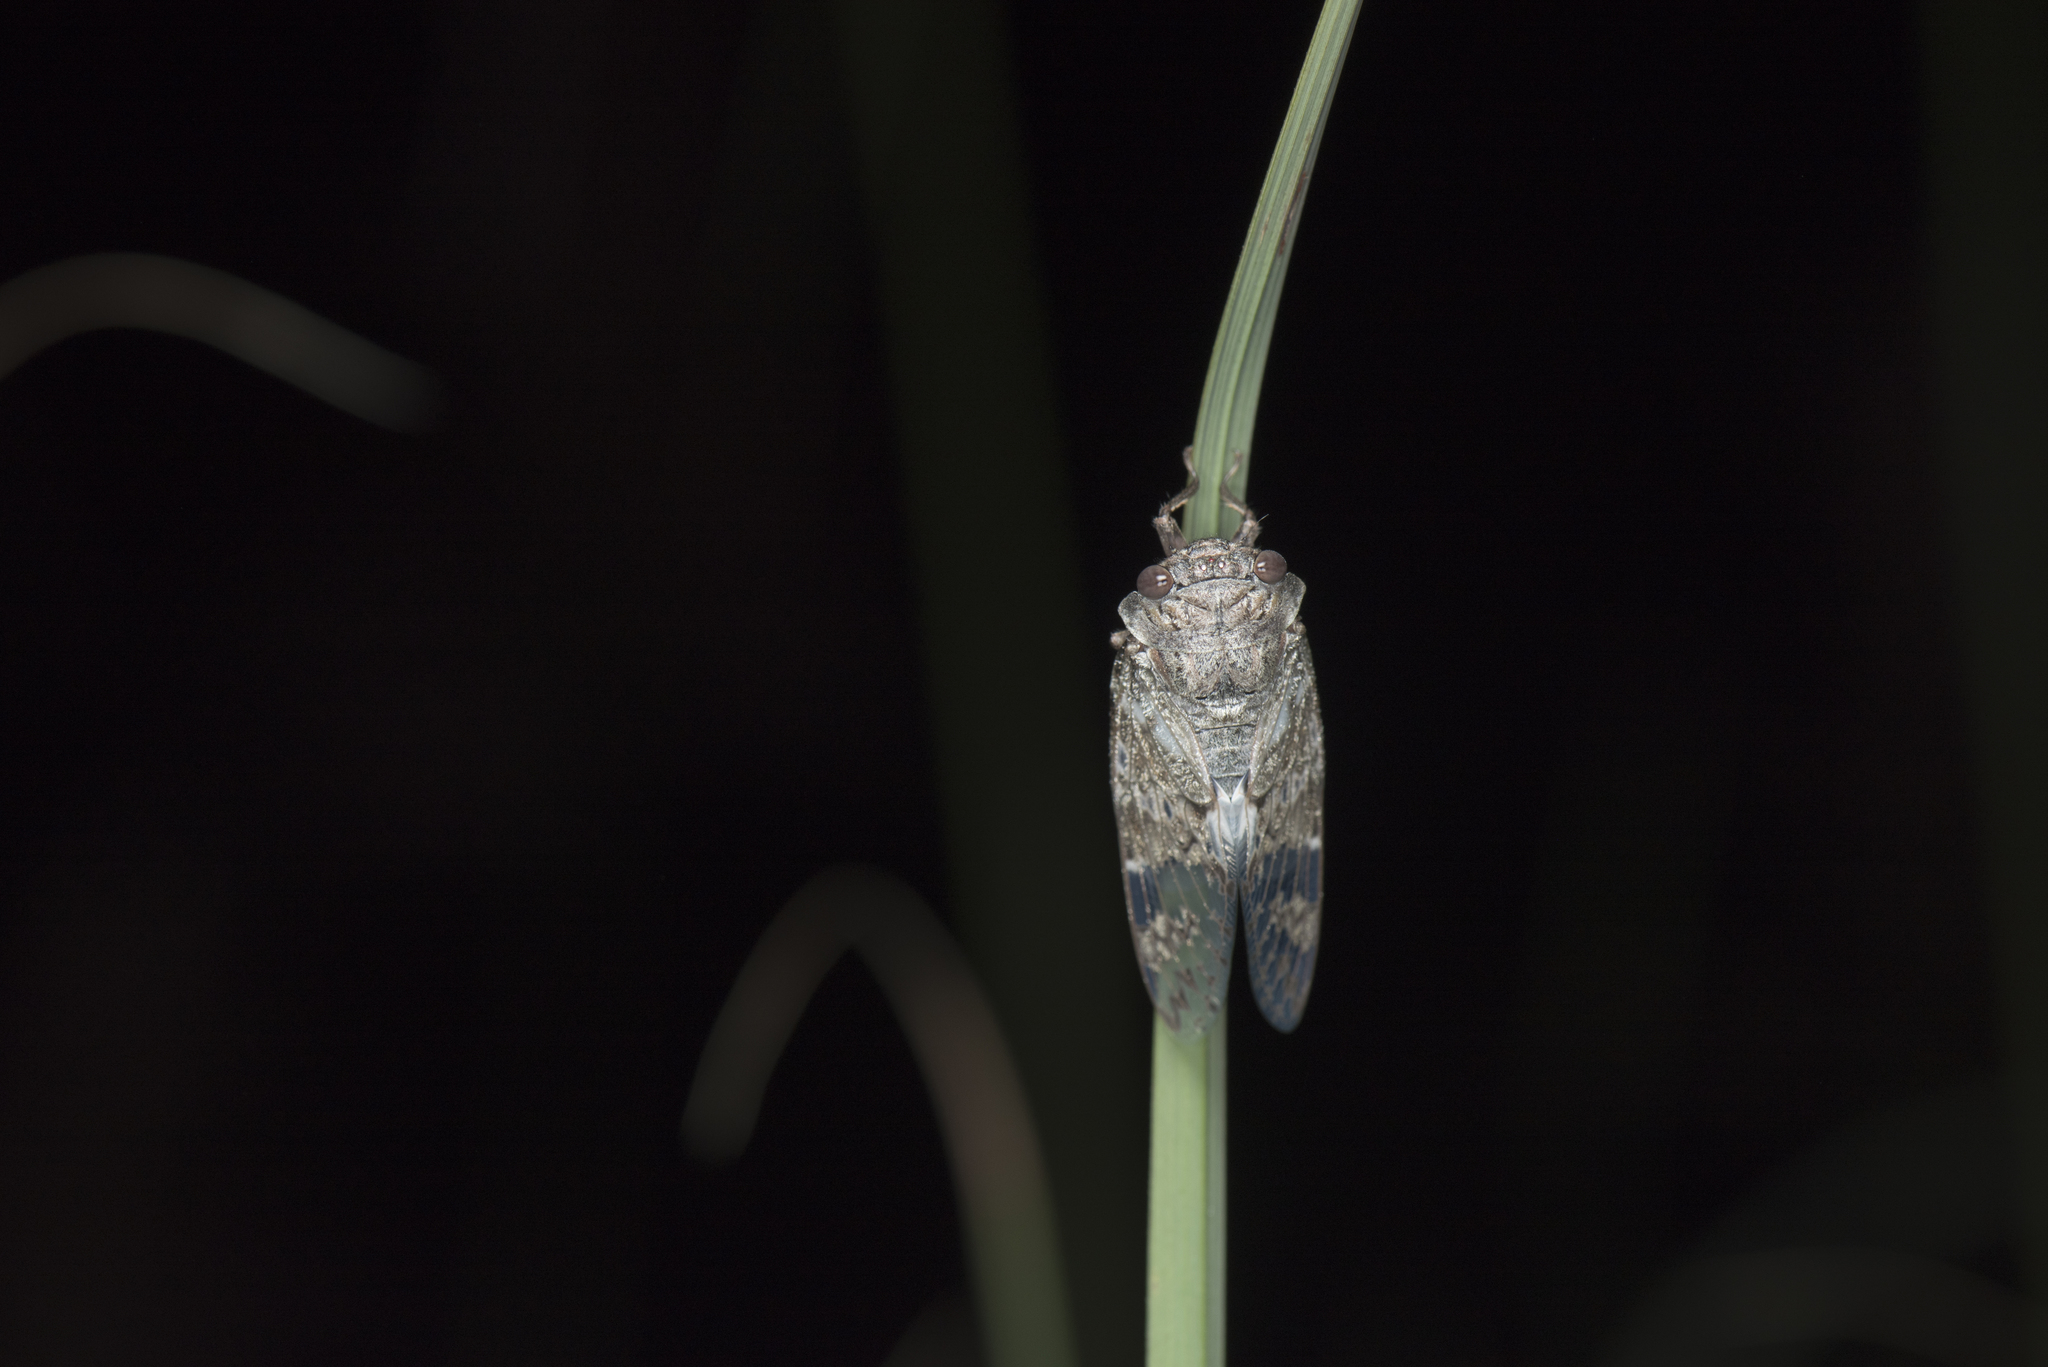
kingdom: Animalia
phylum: Arthropoda
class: Insecta
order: Hemiptera
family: Cicadidae
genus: Platypleura
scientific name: Platypleura takasagona
